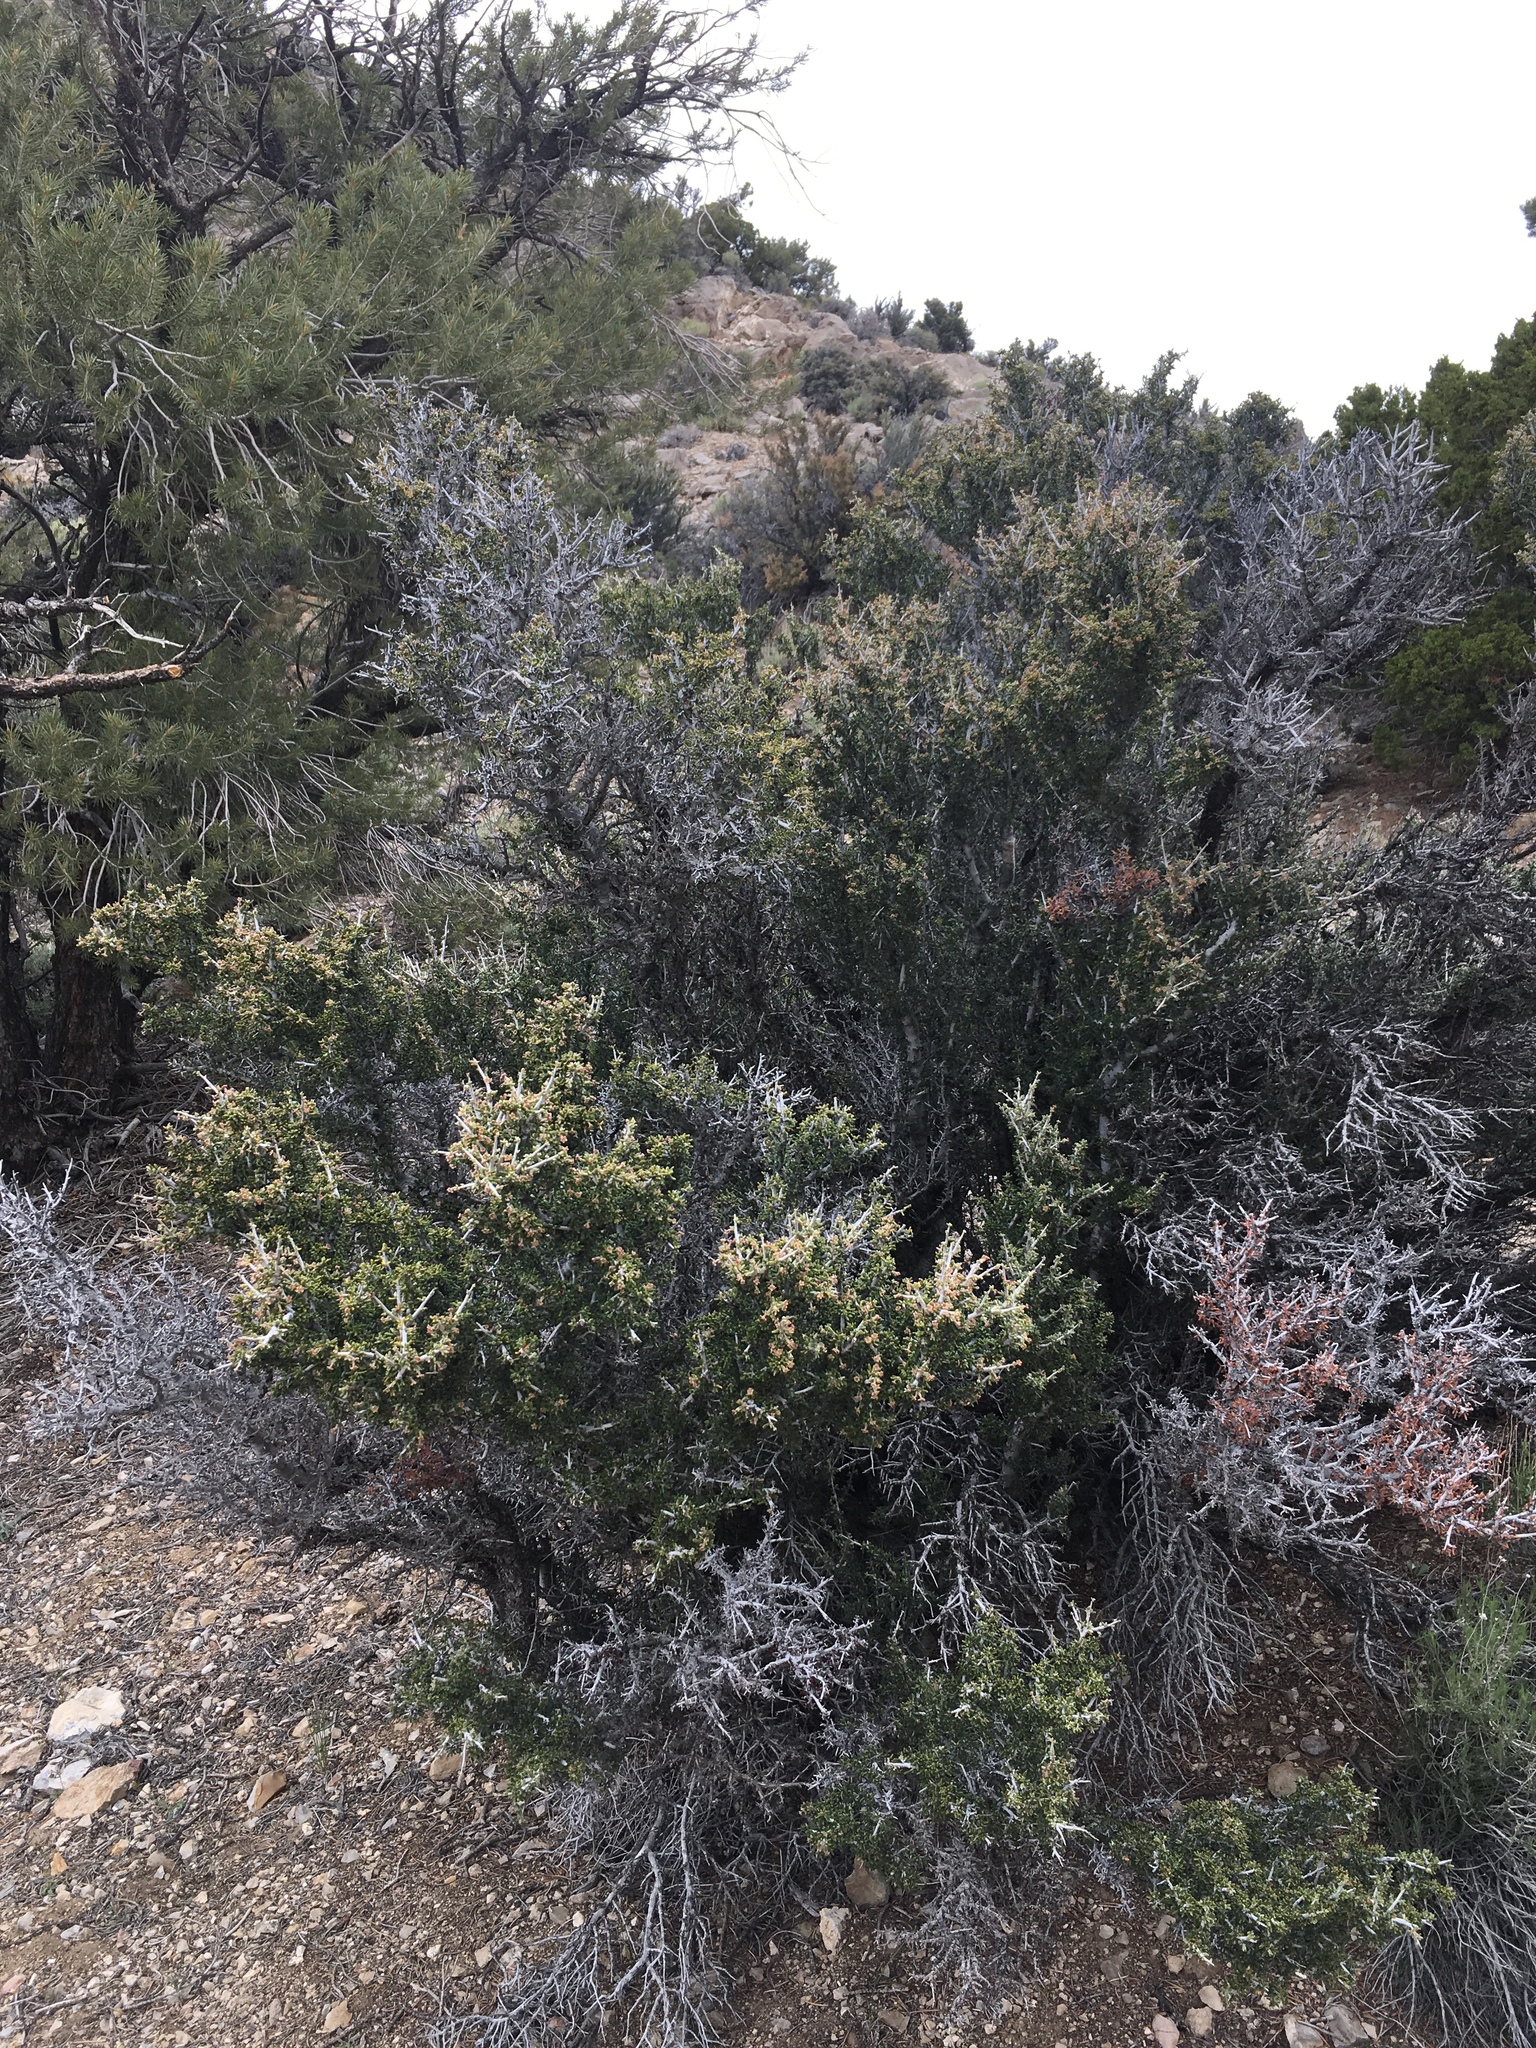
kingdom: Plantae
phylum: Tracheophyta
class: Magnoliopsida
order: Rosales
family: Rosaceae
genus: Cercocarpus
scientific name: Cercocarpus intricatus
